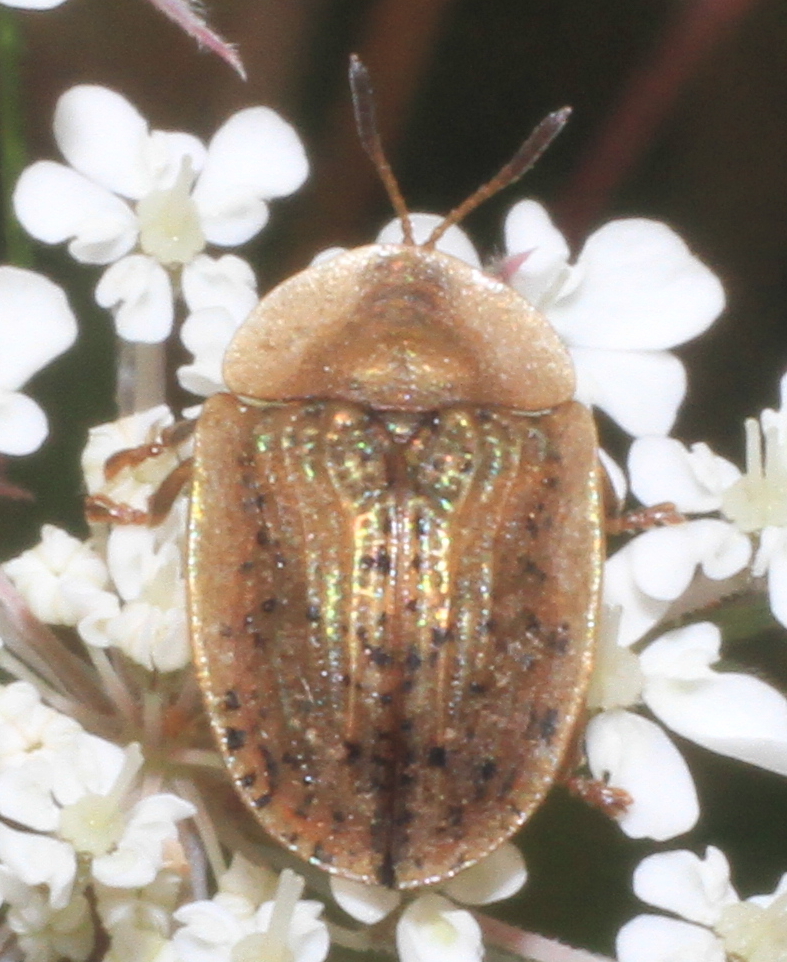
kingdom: Animalia
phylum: Arthropoda
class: Insecta
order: Coleoptera
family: Chrysomelidae
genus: Cassida
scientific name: Cassida nebulosa
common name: Beet tortoise beetle
